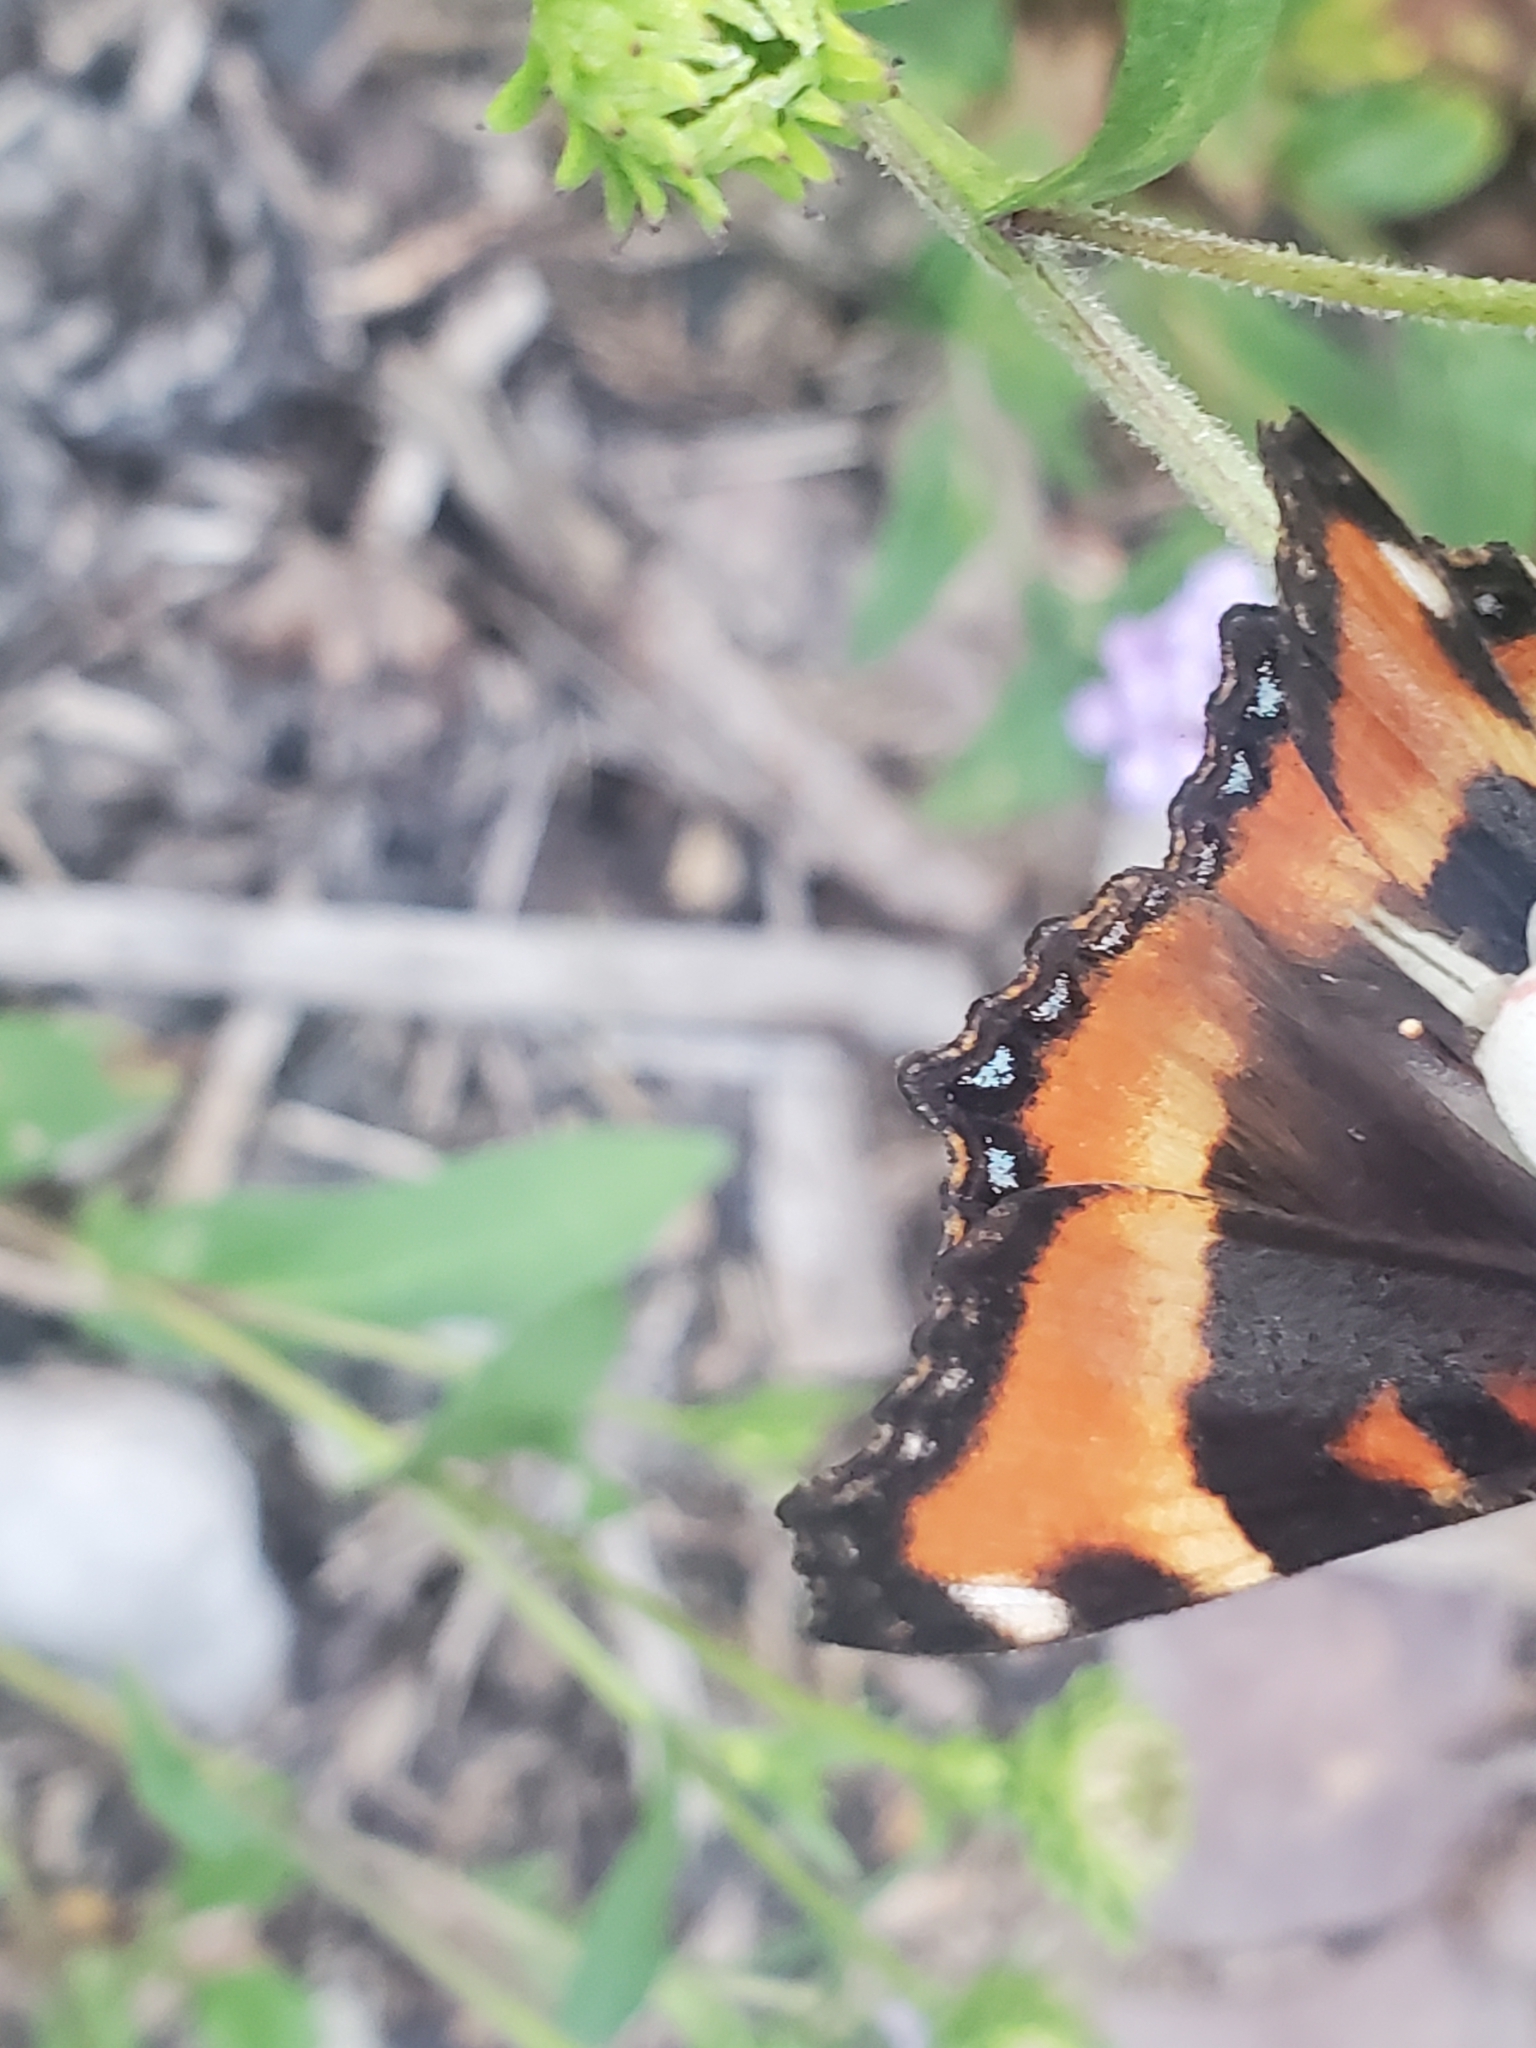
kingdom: Animalia
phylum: Arthropoda
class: Insecta
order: Lepidoptera
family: Nymphalidae
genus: Aglais
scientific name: Aglais milberti
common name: Milbert's tortoiseshell
